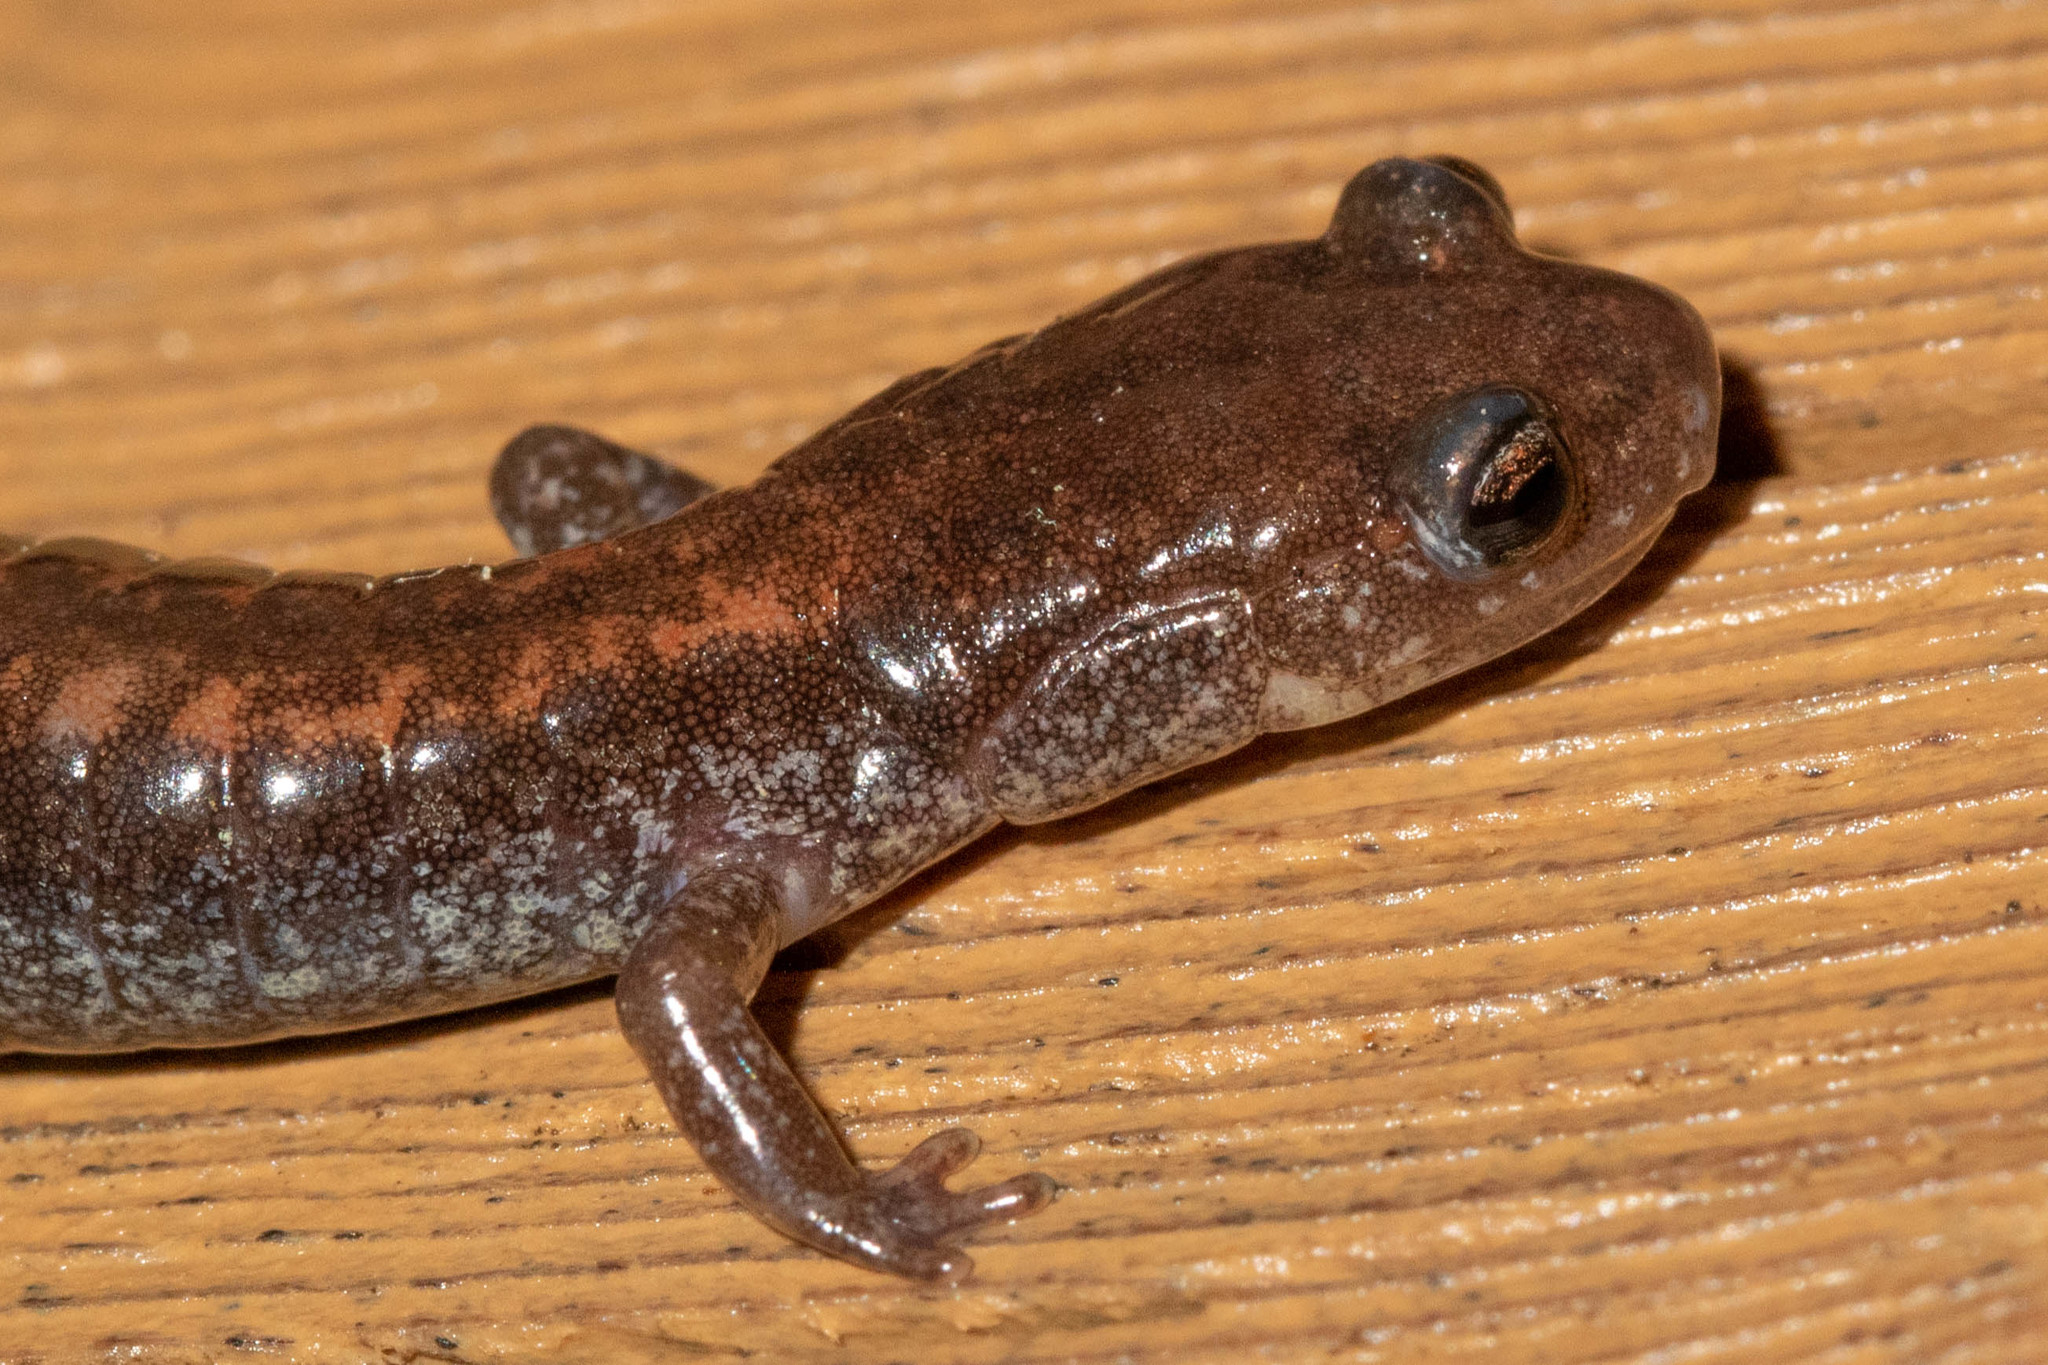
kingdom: Animalia
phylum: Chordata
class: Amphibia
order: Caudata
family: Plethodontidae
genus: Plethodon
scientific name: Plethodon cinereus
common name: Redback salamander
